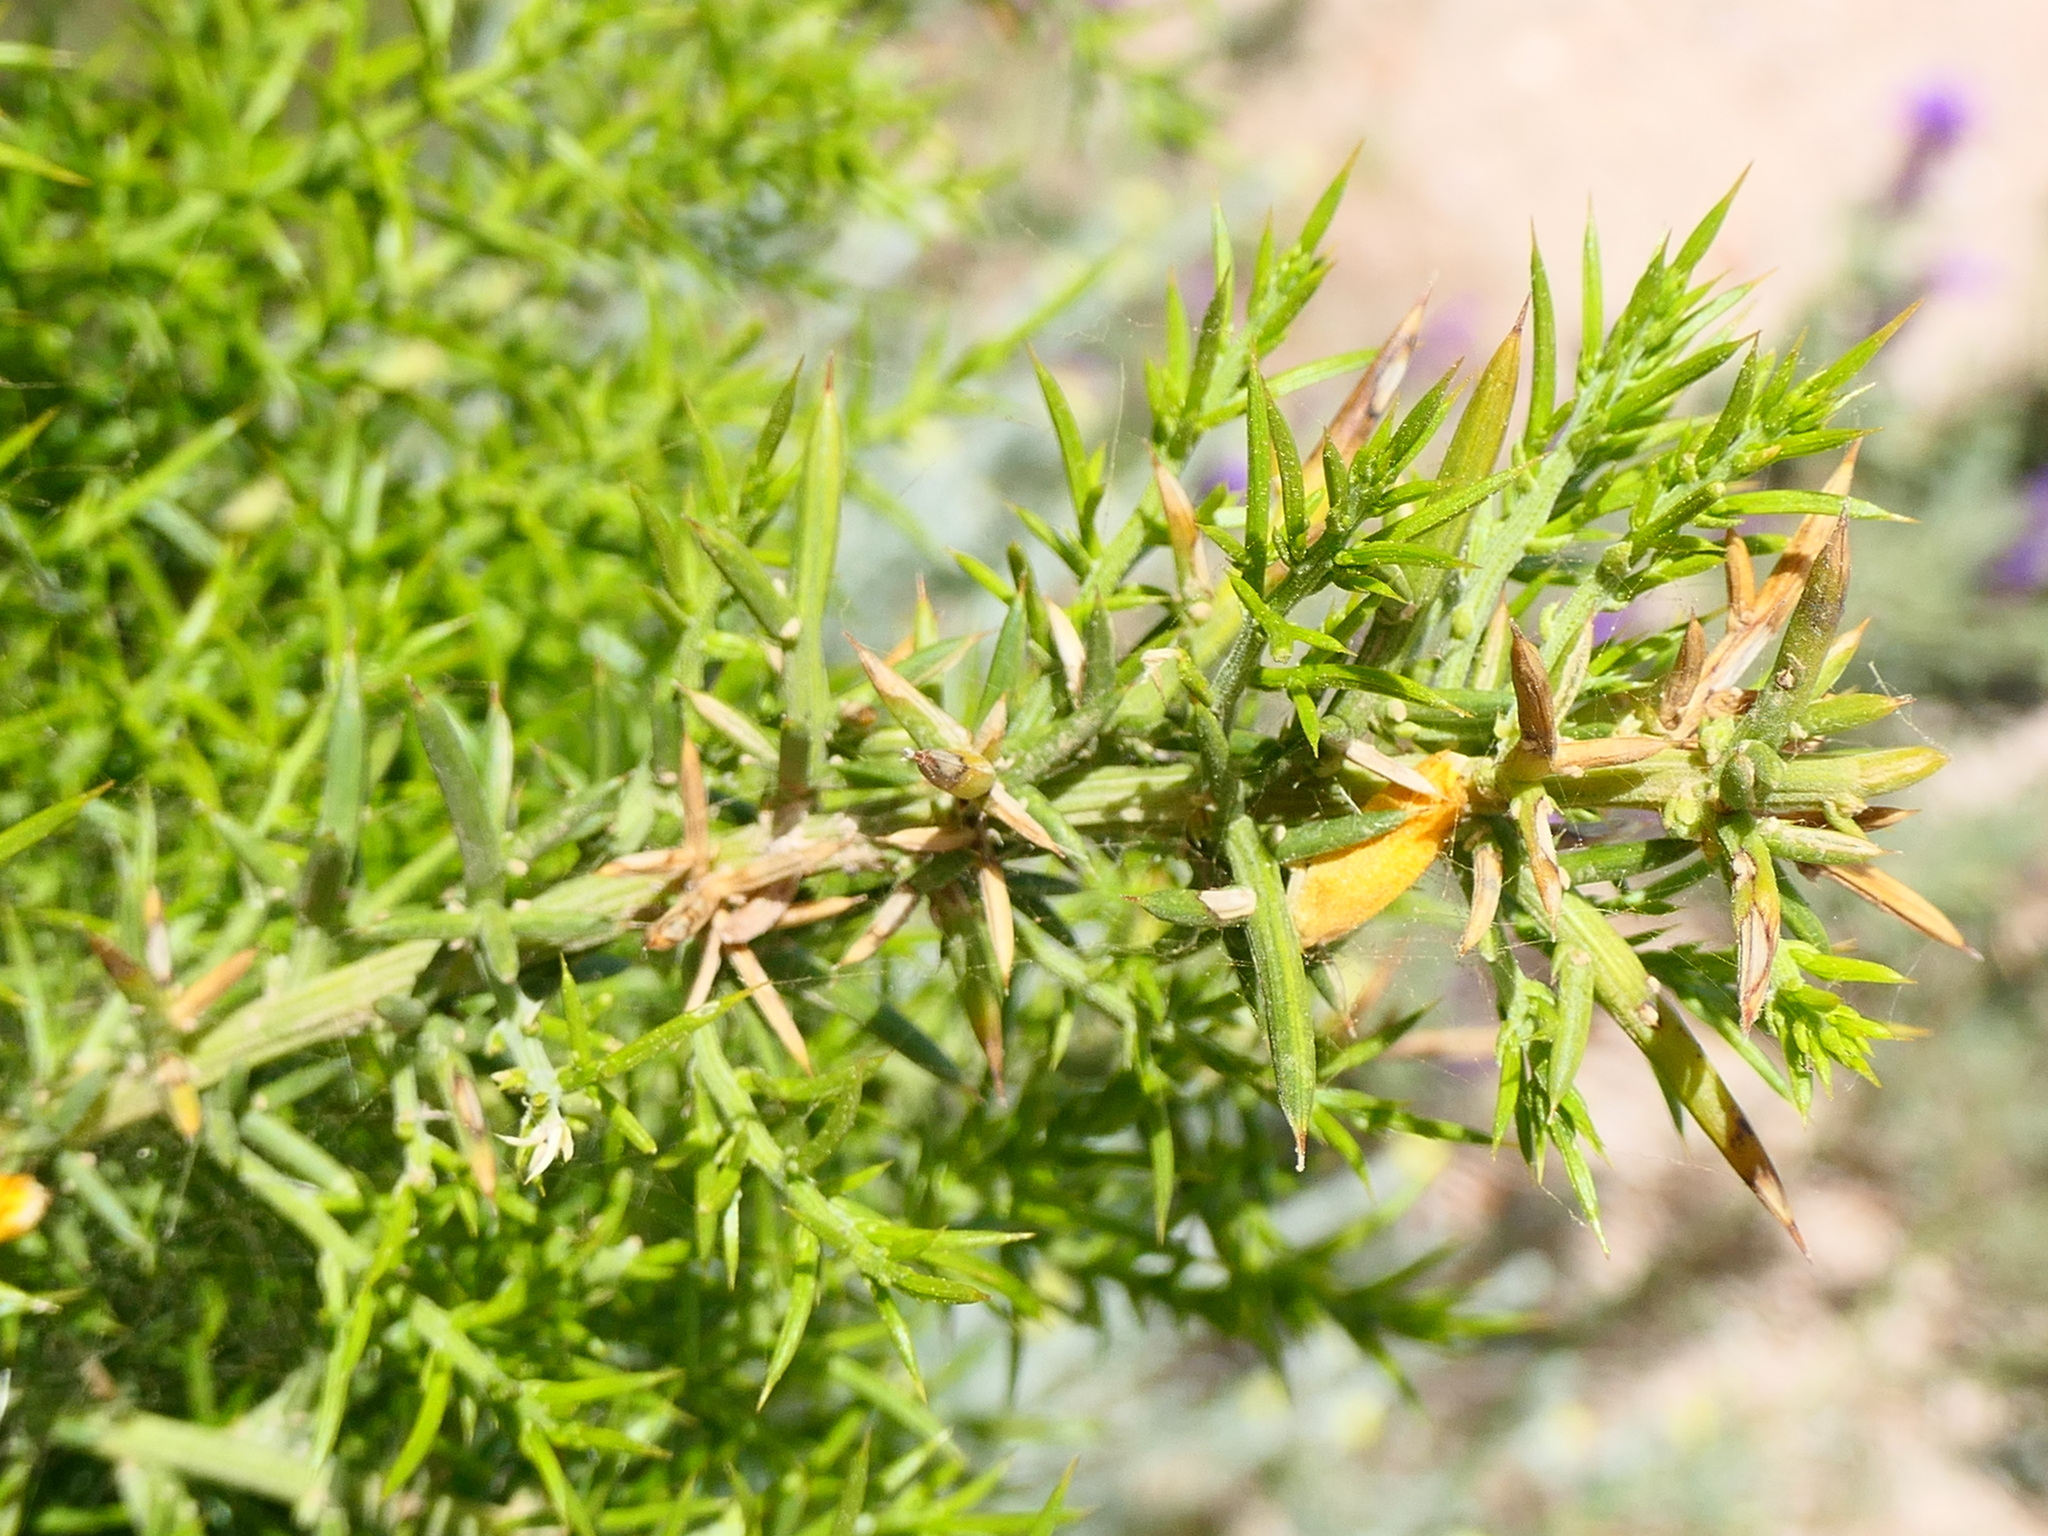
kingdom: Plantae
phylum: Tracheophyta
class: Magnoliopsida
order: Fabales
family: Fabaceae
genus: Ulex
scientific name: Ulex parviflorus
